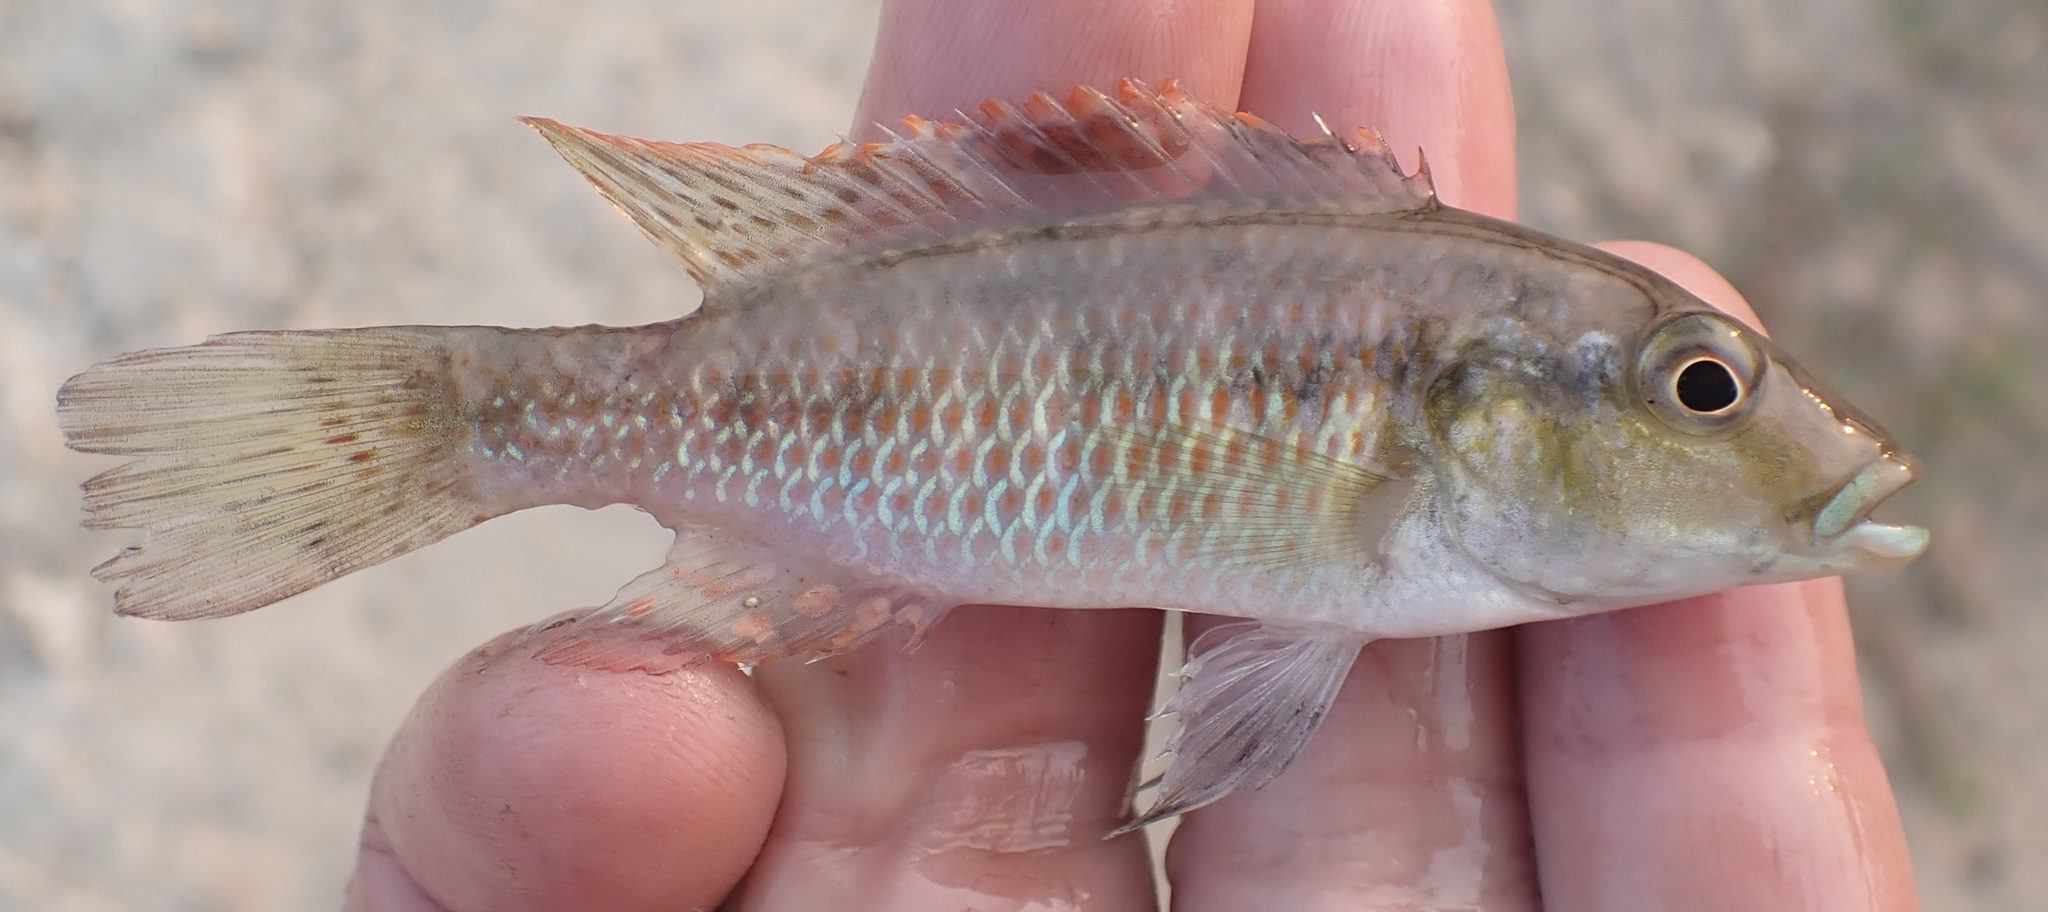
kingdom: Animalia
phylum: Chordata
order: Perciformes
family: Cichlidae
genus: Pharyngochromis
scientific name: Pharyngochromis acuticeps
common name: Zambezi happy
